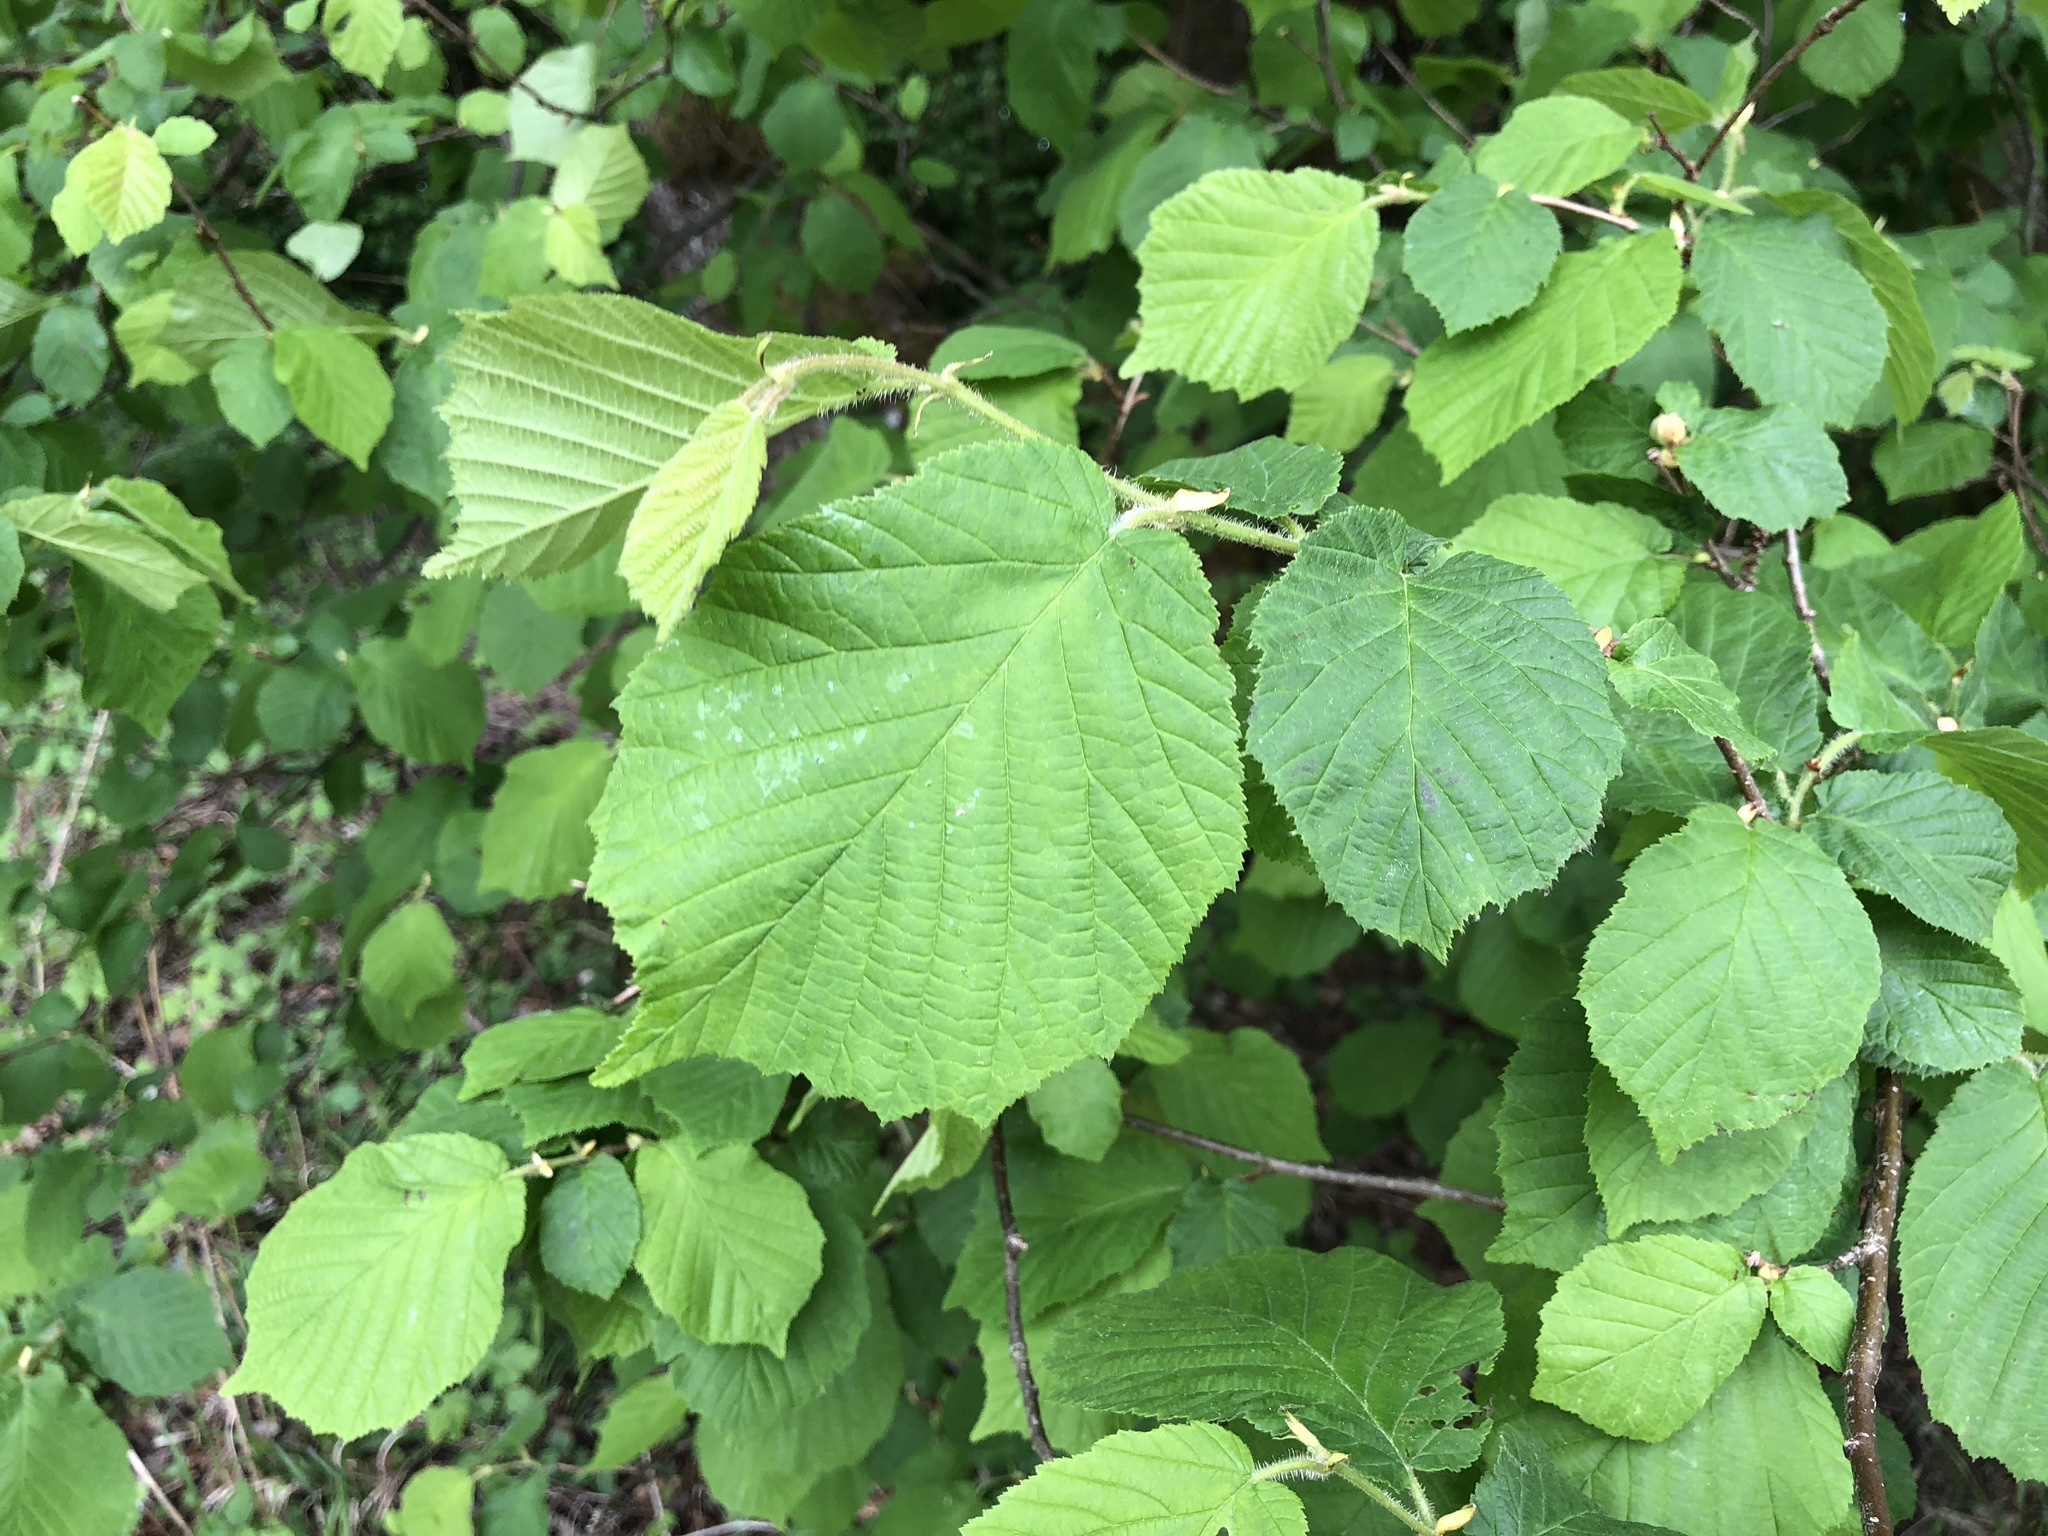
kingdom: Plantae
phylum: Tracheophyta
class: Magnoliopsida
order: Fagales
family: Betulaceae
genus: Corylus
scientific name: Corylus avellana
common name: European hazel
